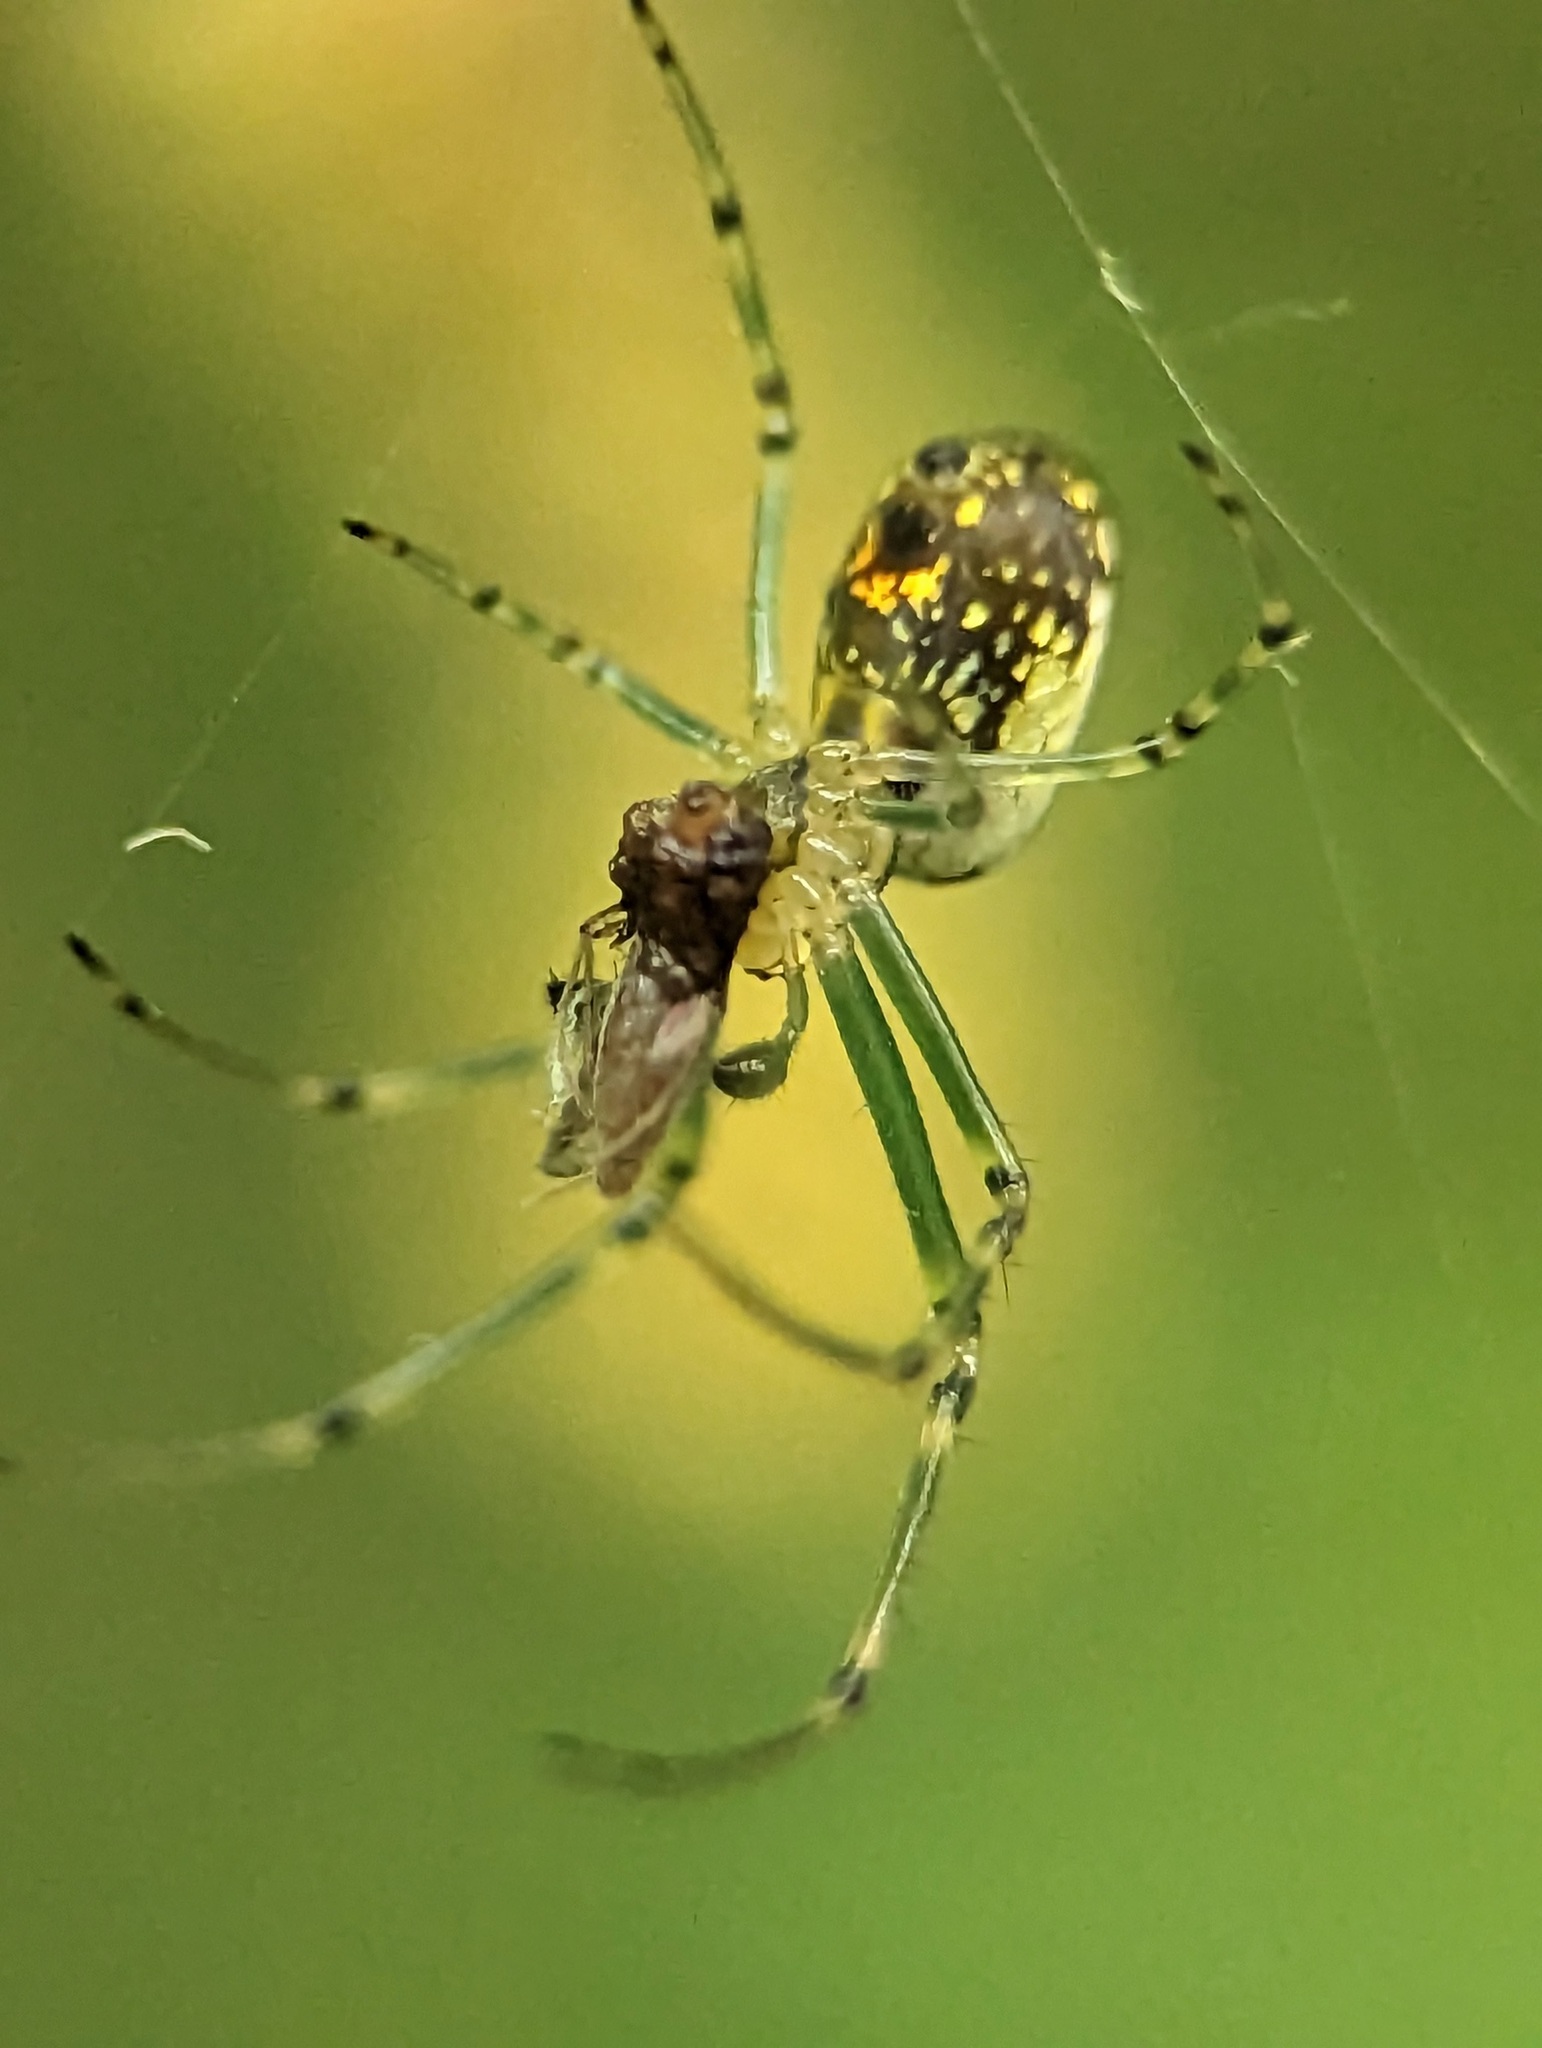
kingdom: Animalia
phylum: Arthropoda
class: Arachnida
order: Araneae
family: Tetragnathidae
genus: Leucauge
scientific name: Leucauge venusta
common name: Longjawed orb weavers
